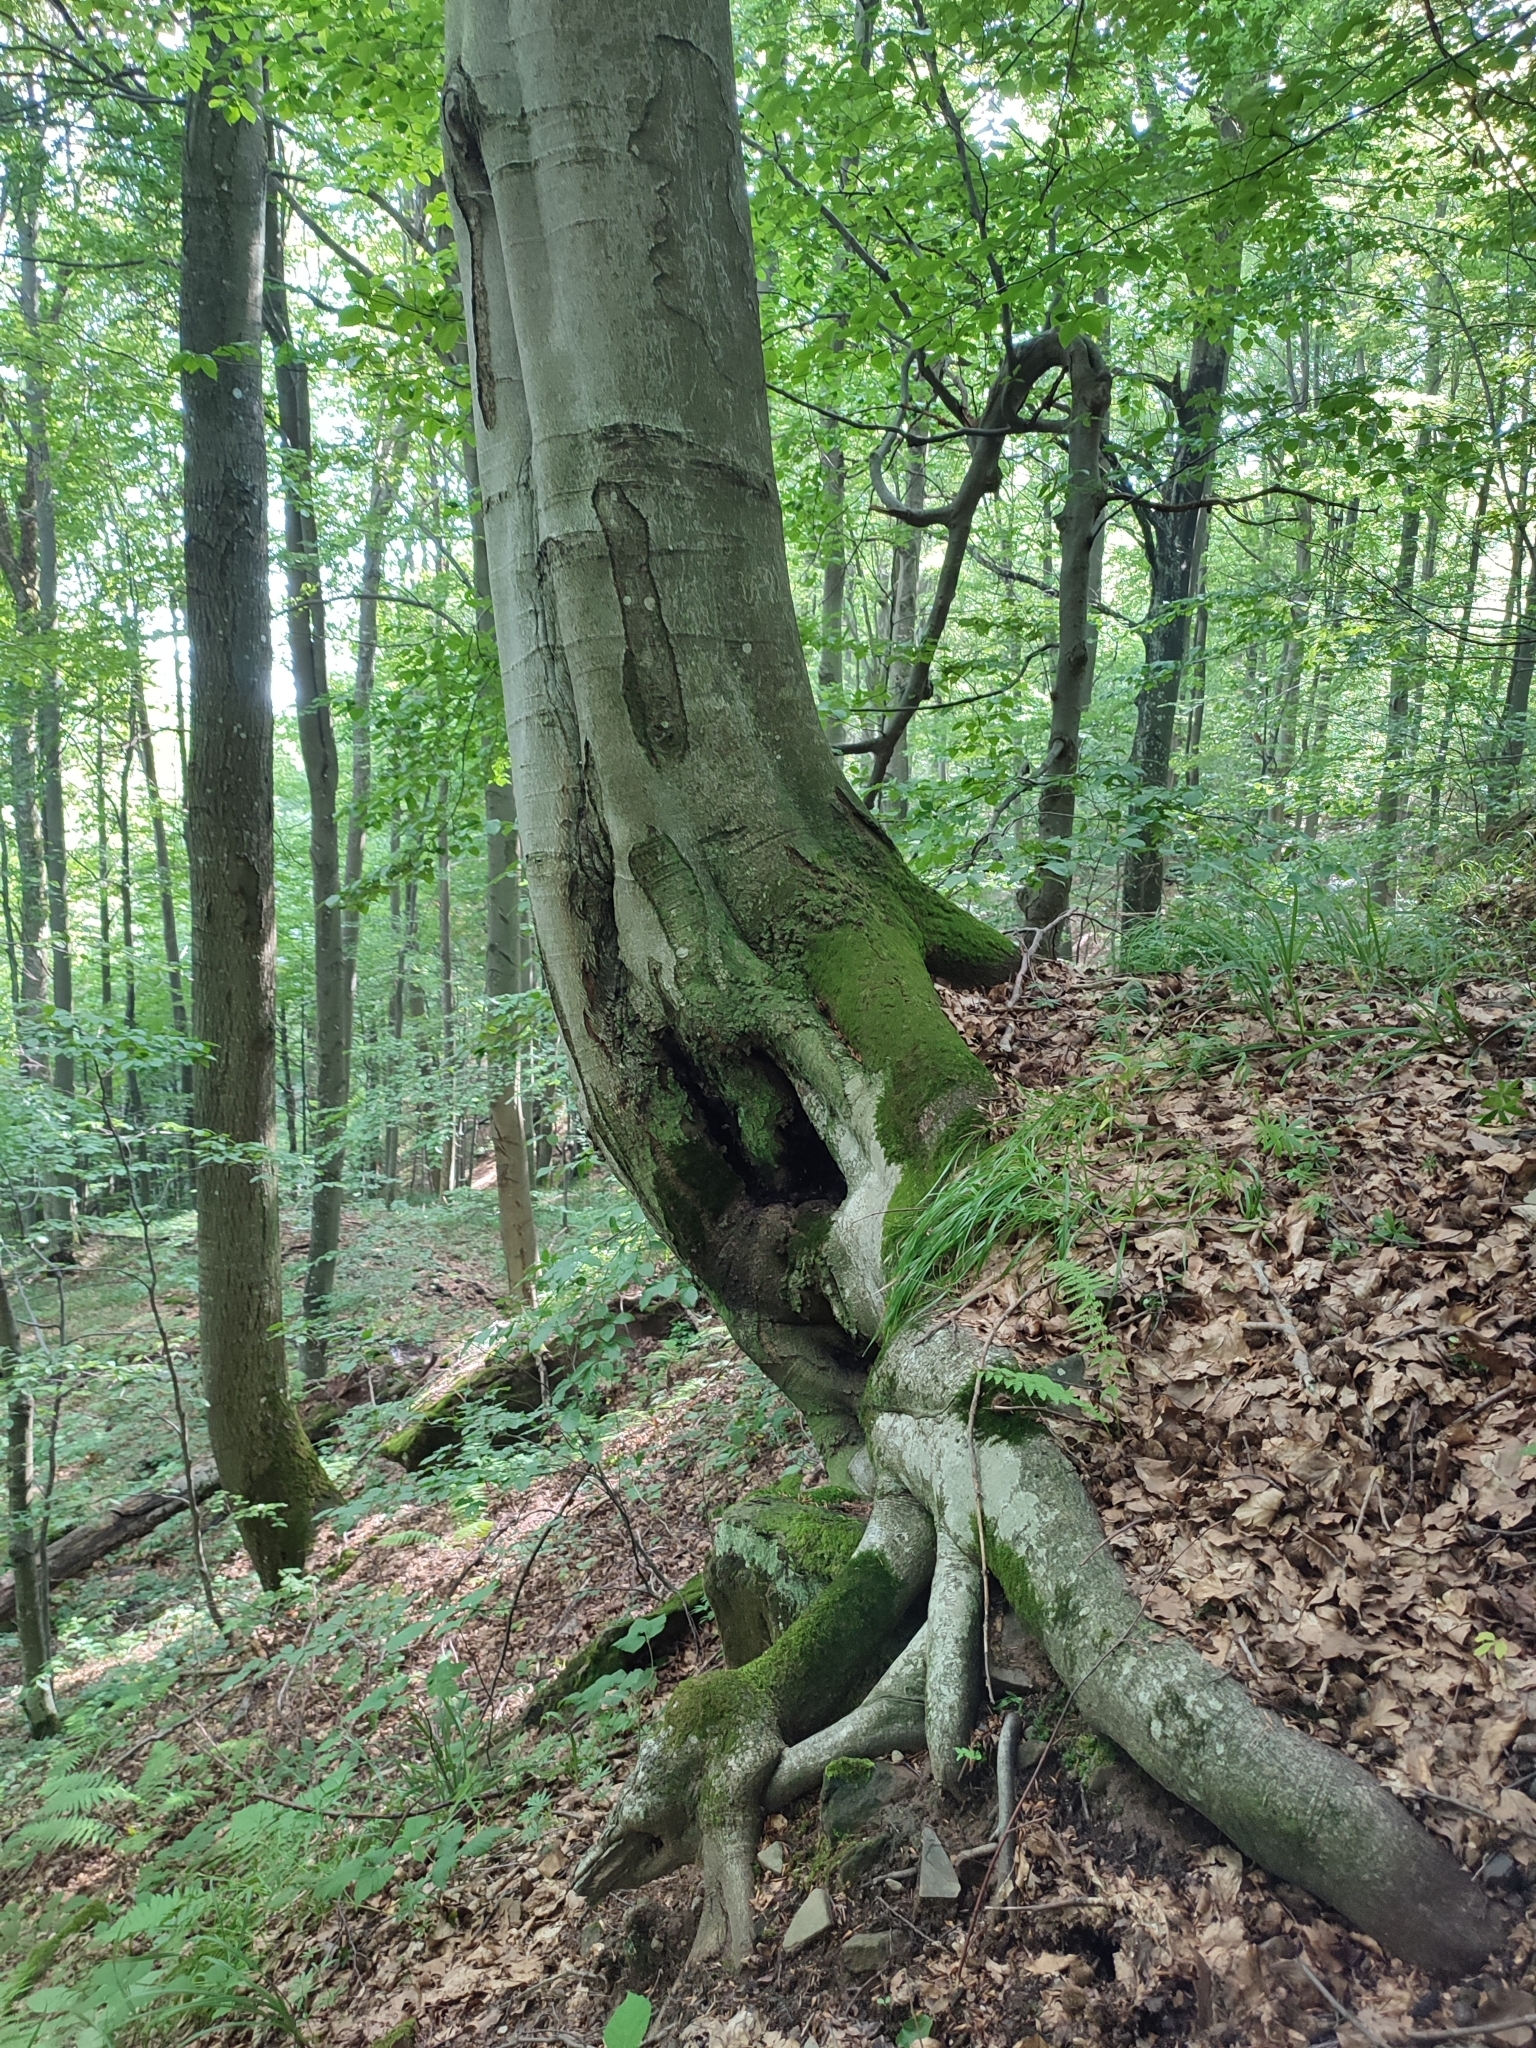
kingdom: Plantae
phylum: Tracheophyta
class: Magnoliopsida
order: Fagales
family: Fagaceae
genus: Fagus
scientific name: Fagus sylvatica
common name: Beech
